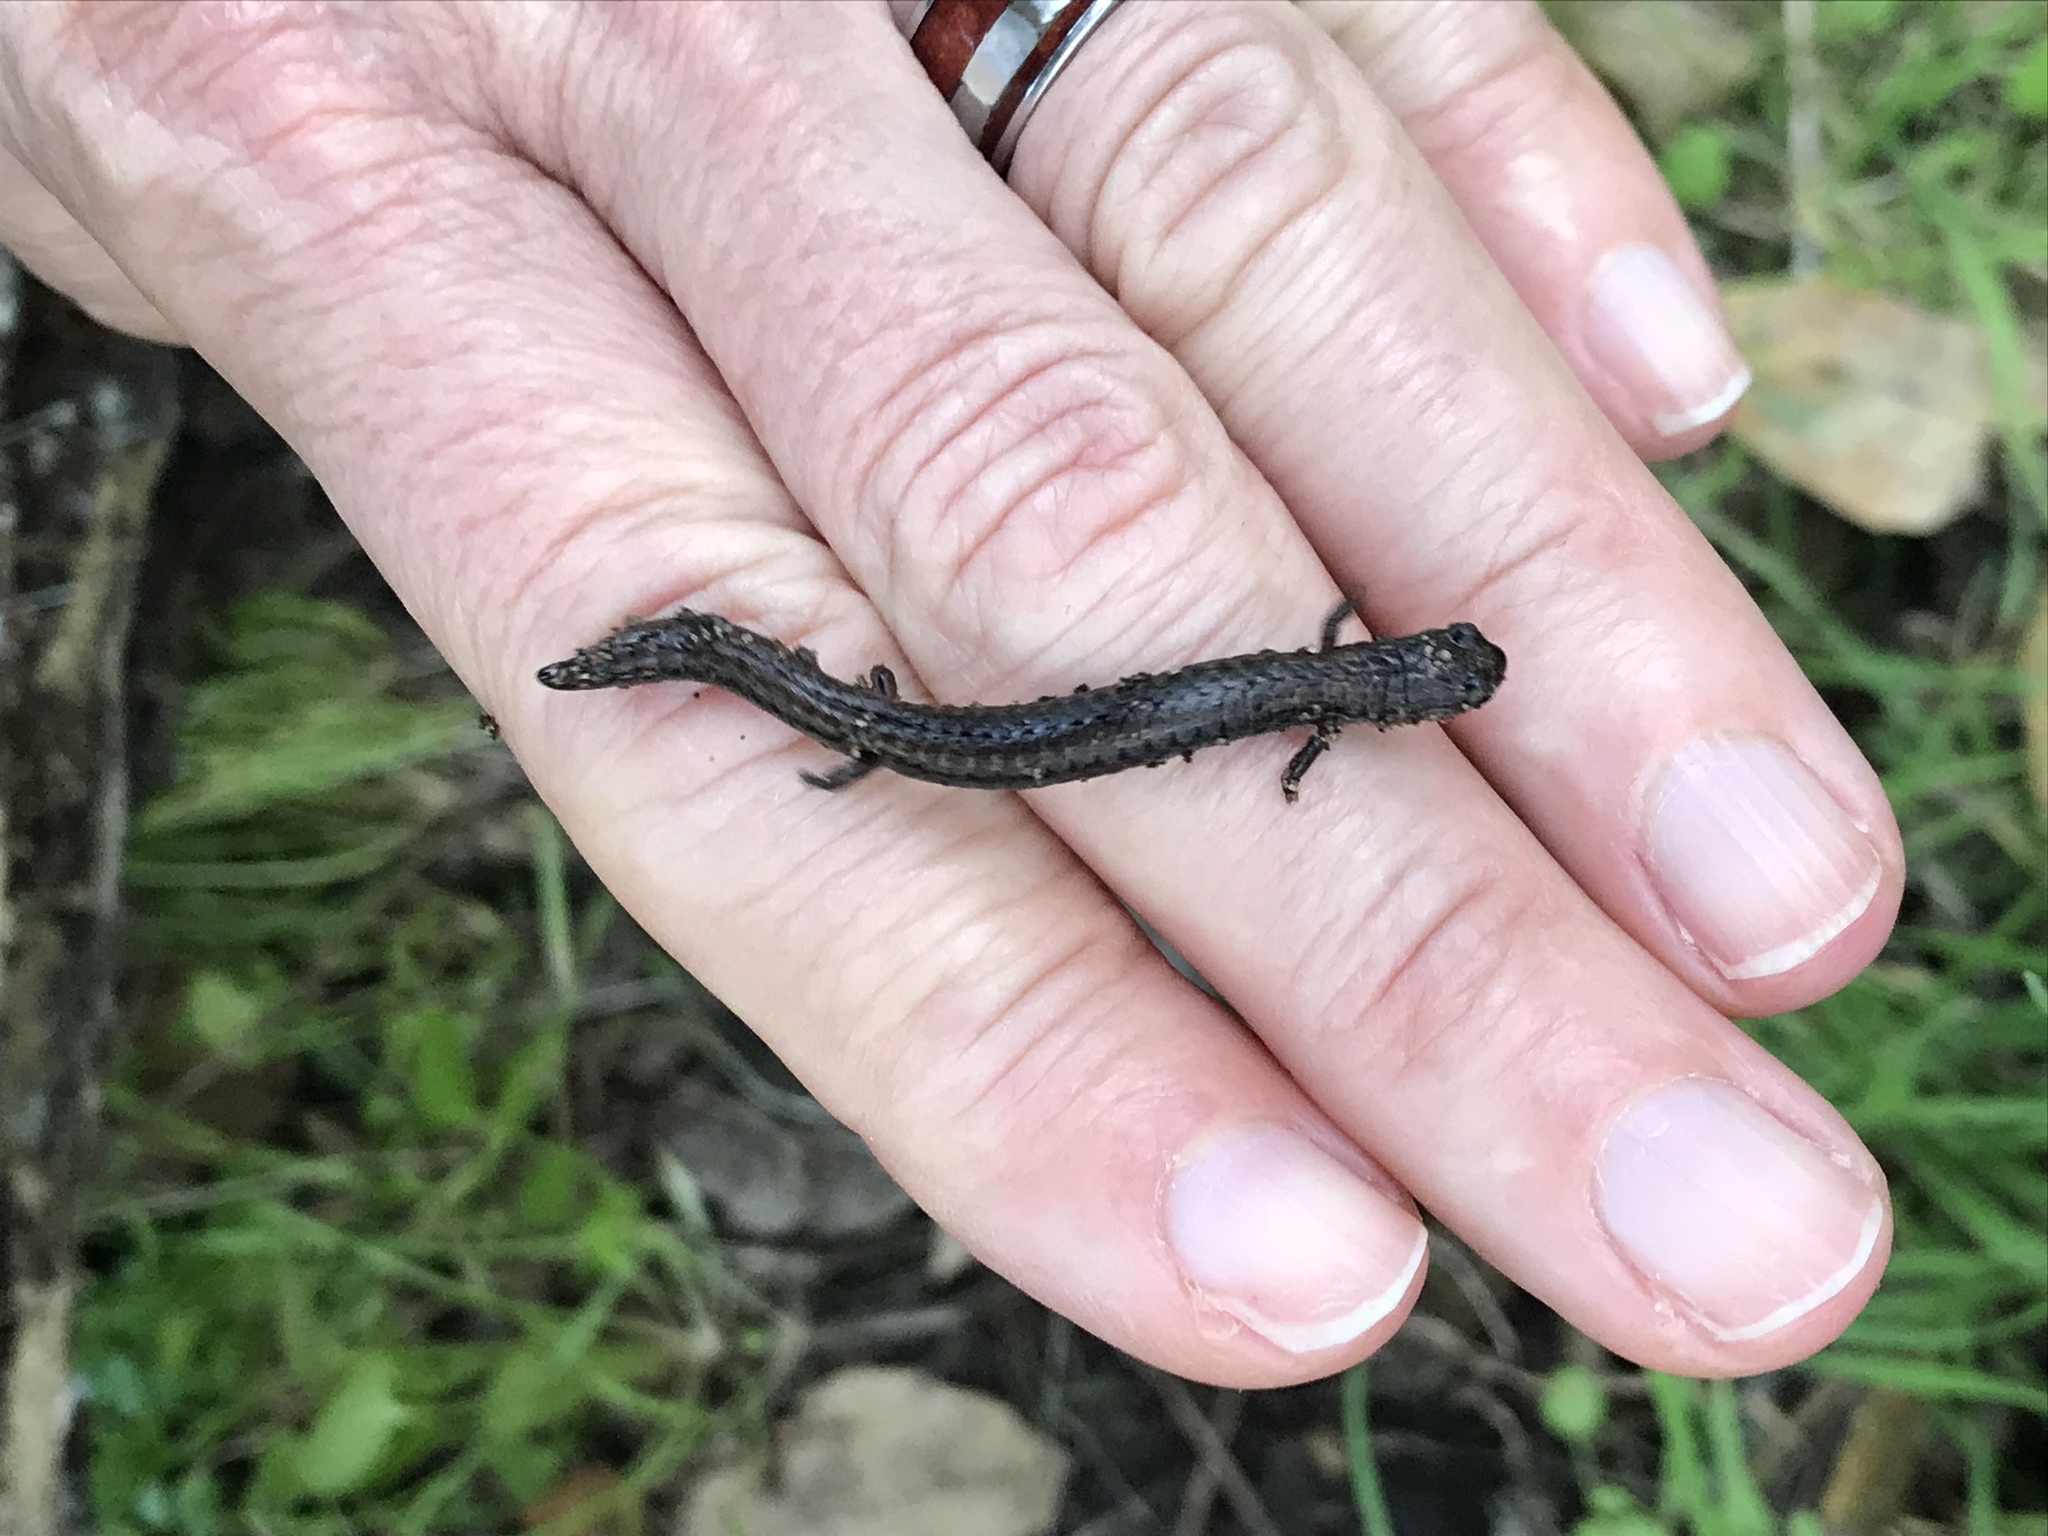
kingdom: Animalia
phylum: Chordata
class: Amphibia
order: Caudata
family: Plethodontidae
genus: Batrachoseps
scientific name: Batrachoseps attenuatus
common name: California slender salamander
